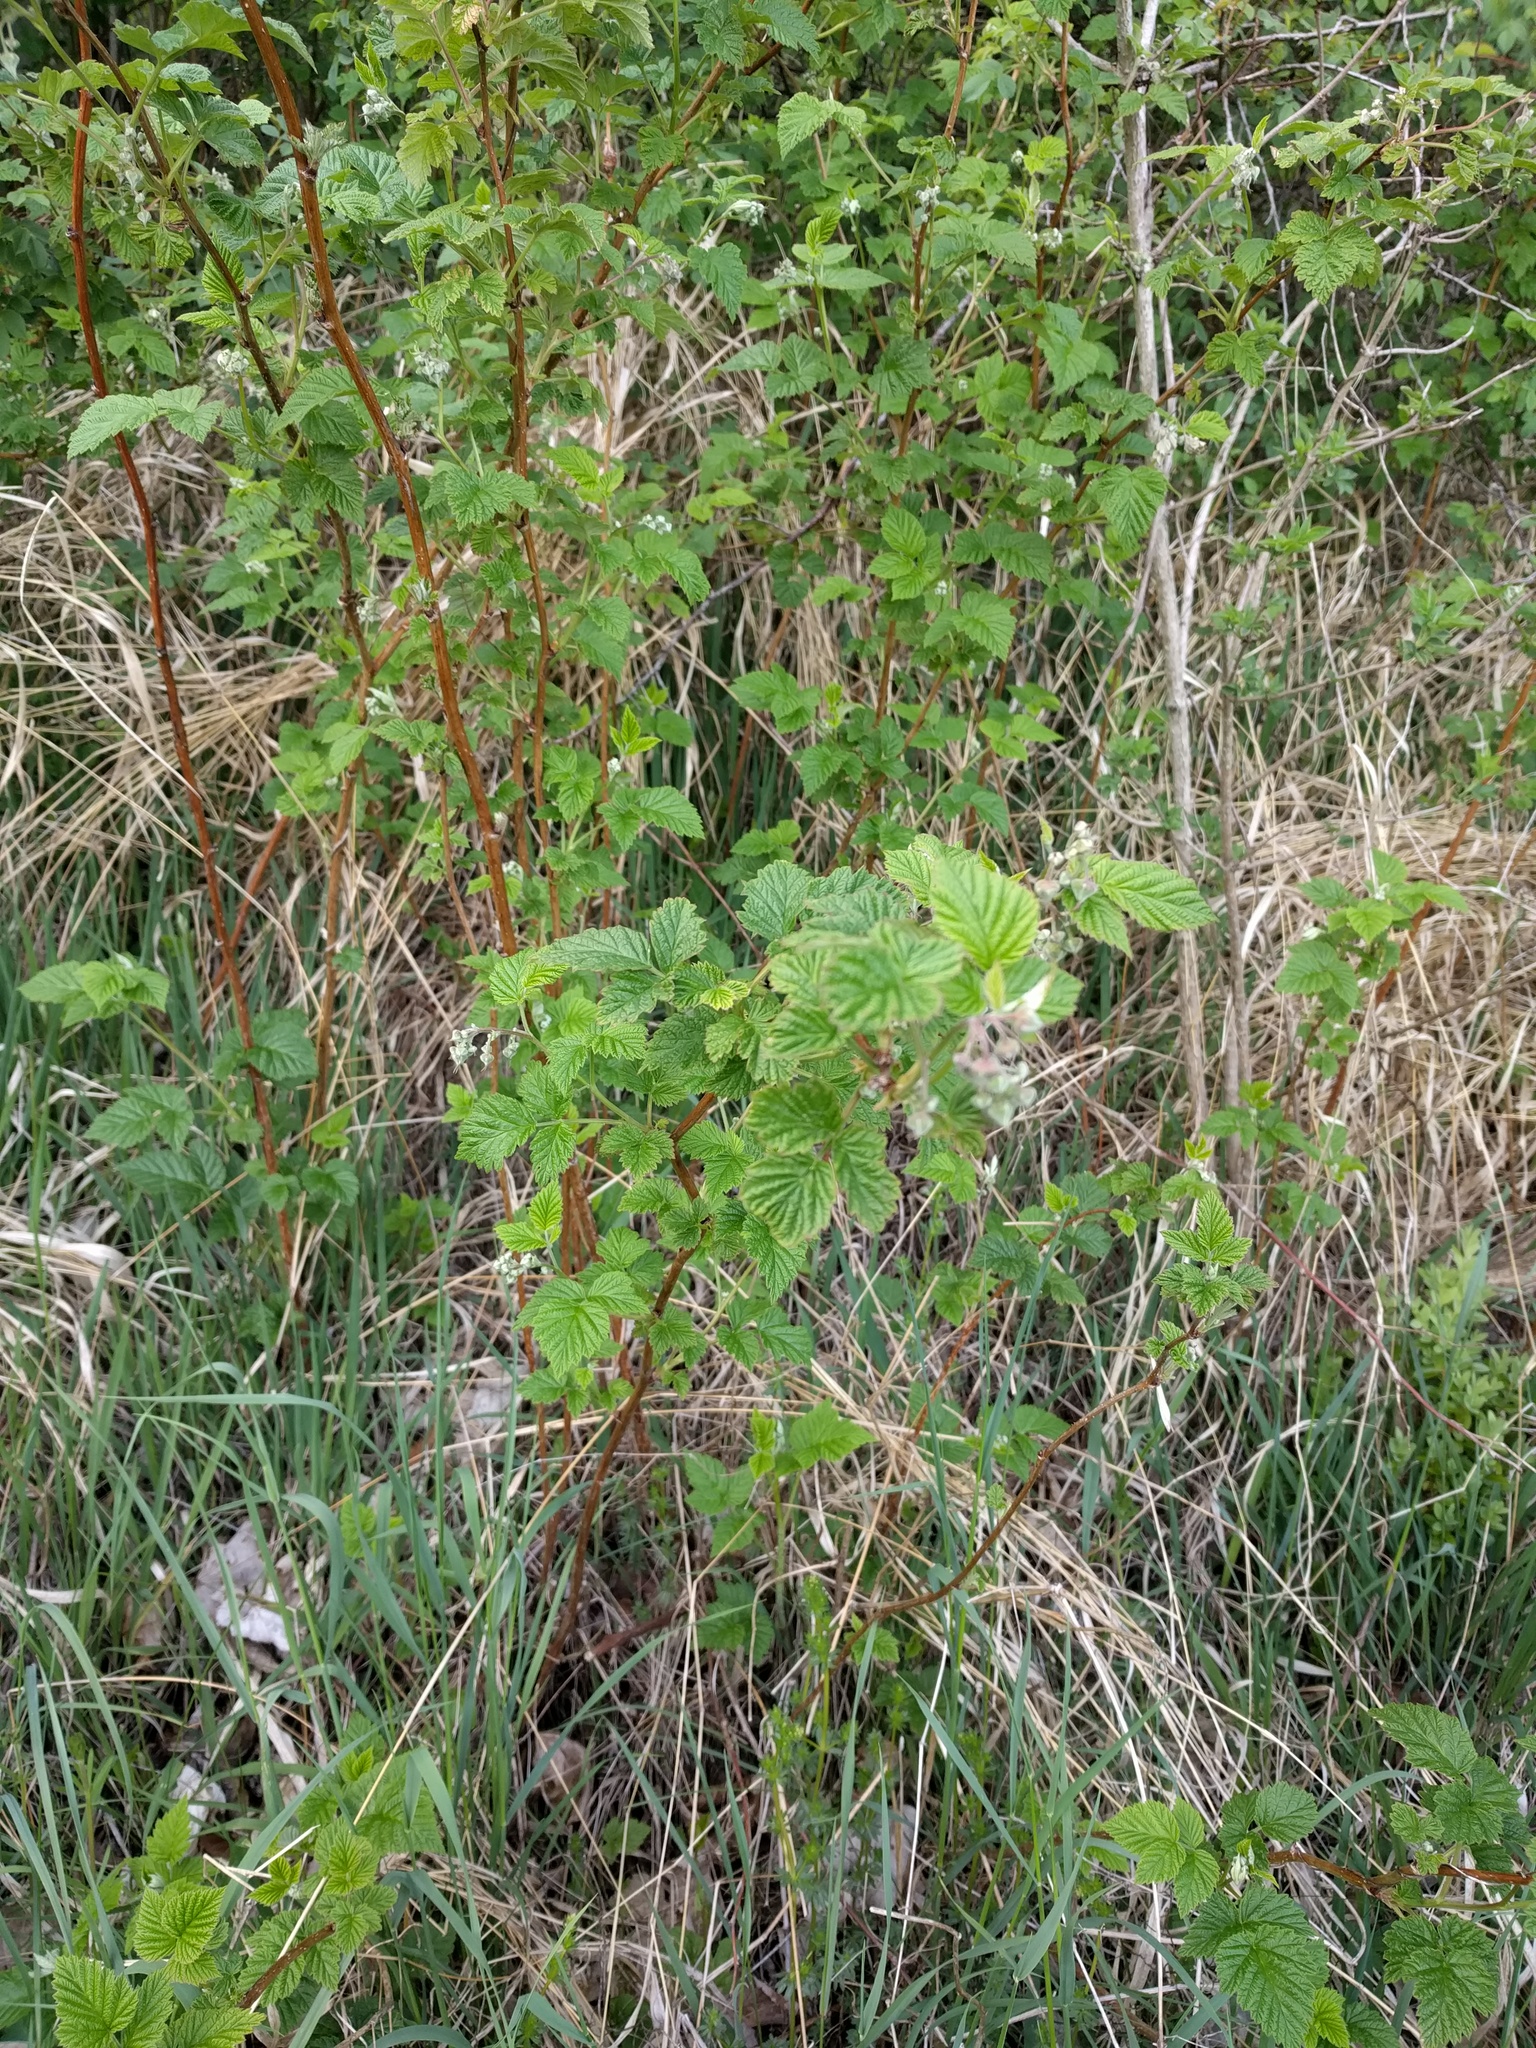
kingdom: Plantae
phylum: Tracheophyta
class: Magnoliopsida
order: Rosales
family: Rosaceae
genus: Rubus
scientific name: Rubus idaeus
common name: Raspberry
